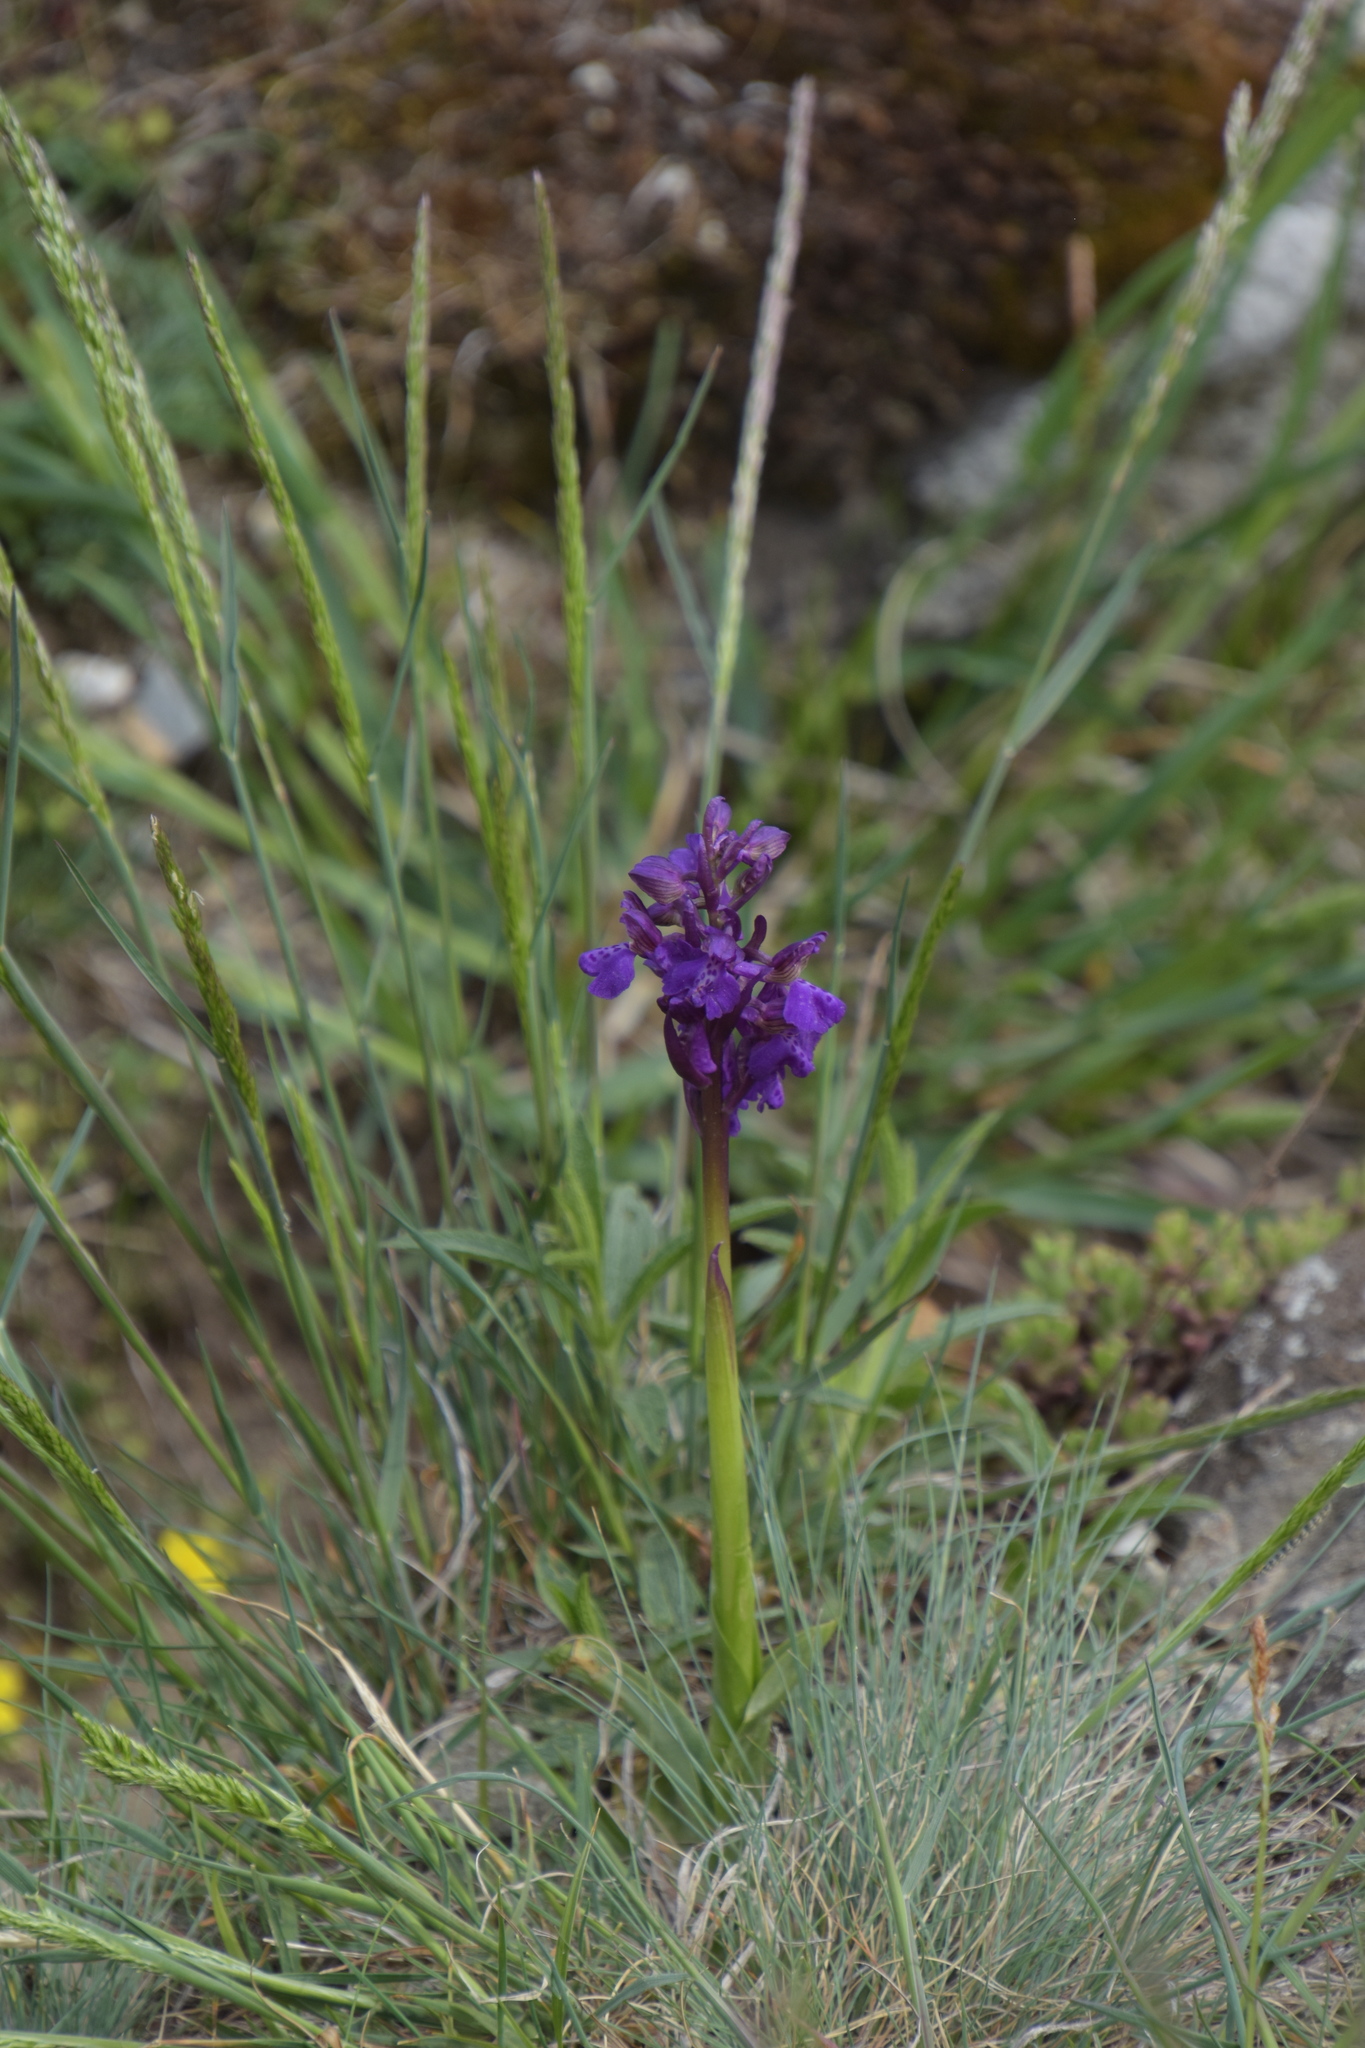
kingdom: Plantae
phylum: Tracheophyta
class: Liliopsida
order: Asparagales
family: Orchidaceae
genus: Anacamptis
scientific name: Anacamptis morio
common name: Green-winged orchid
